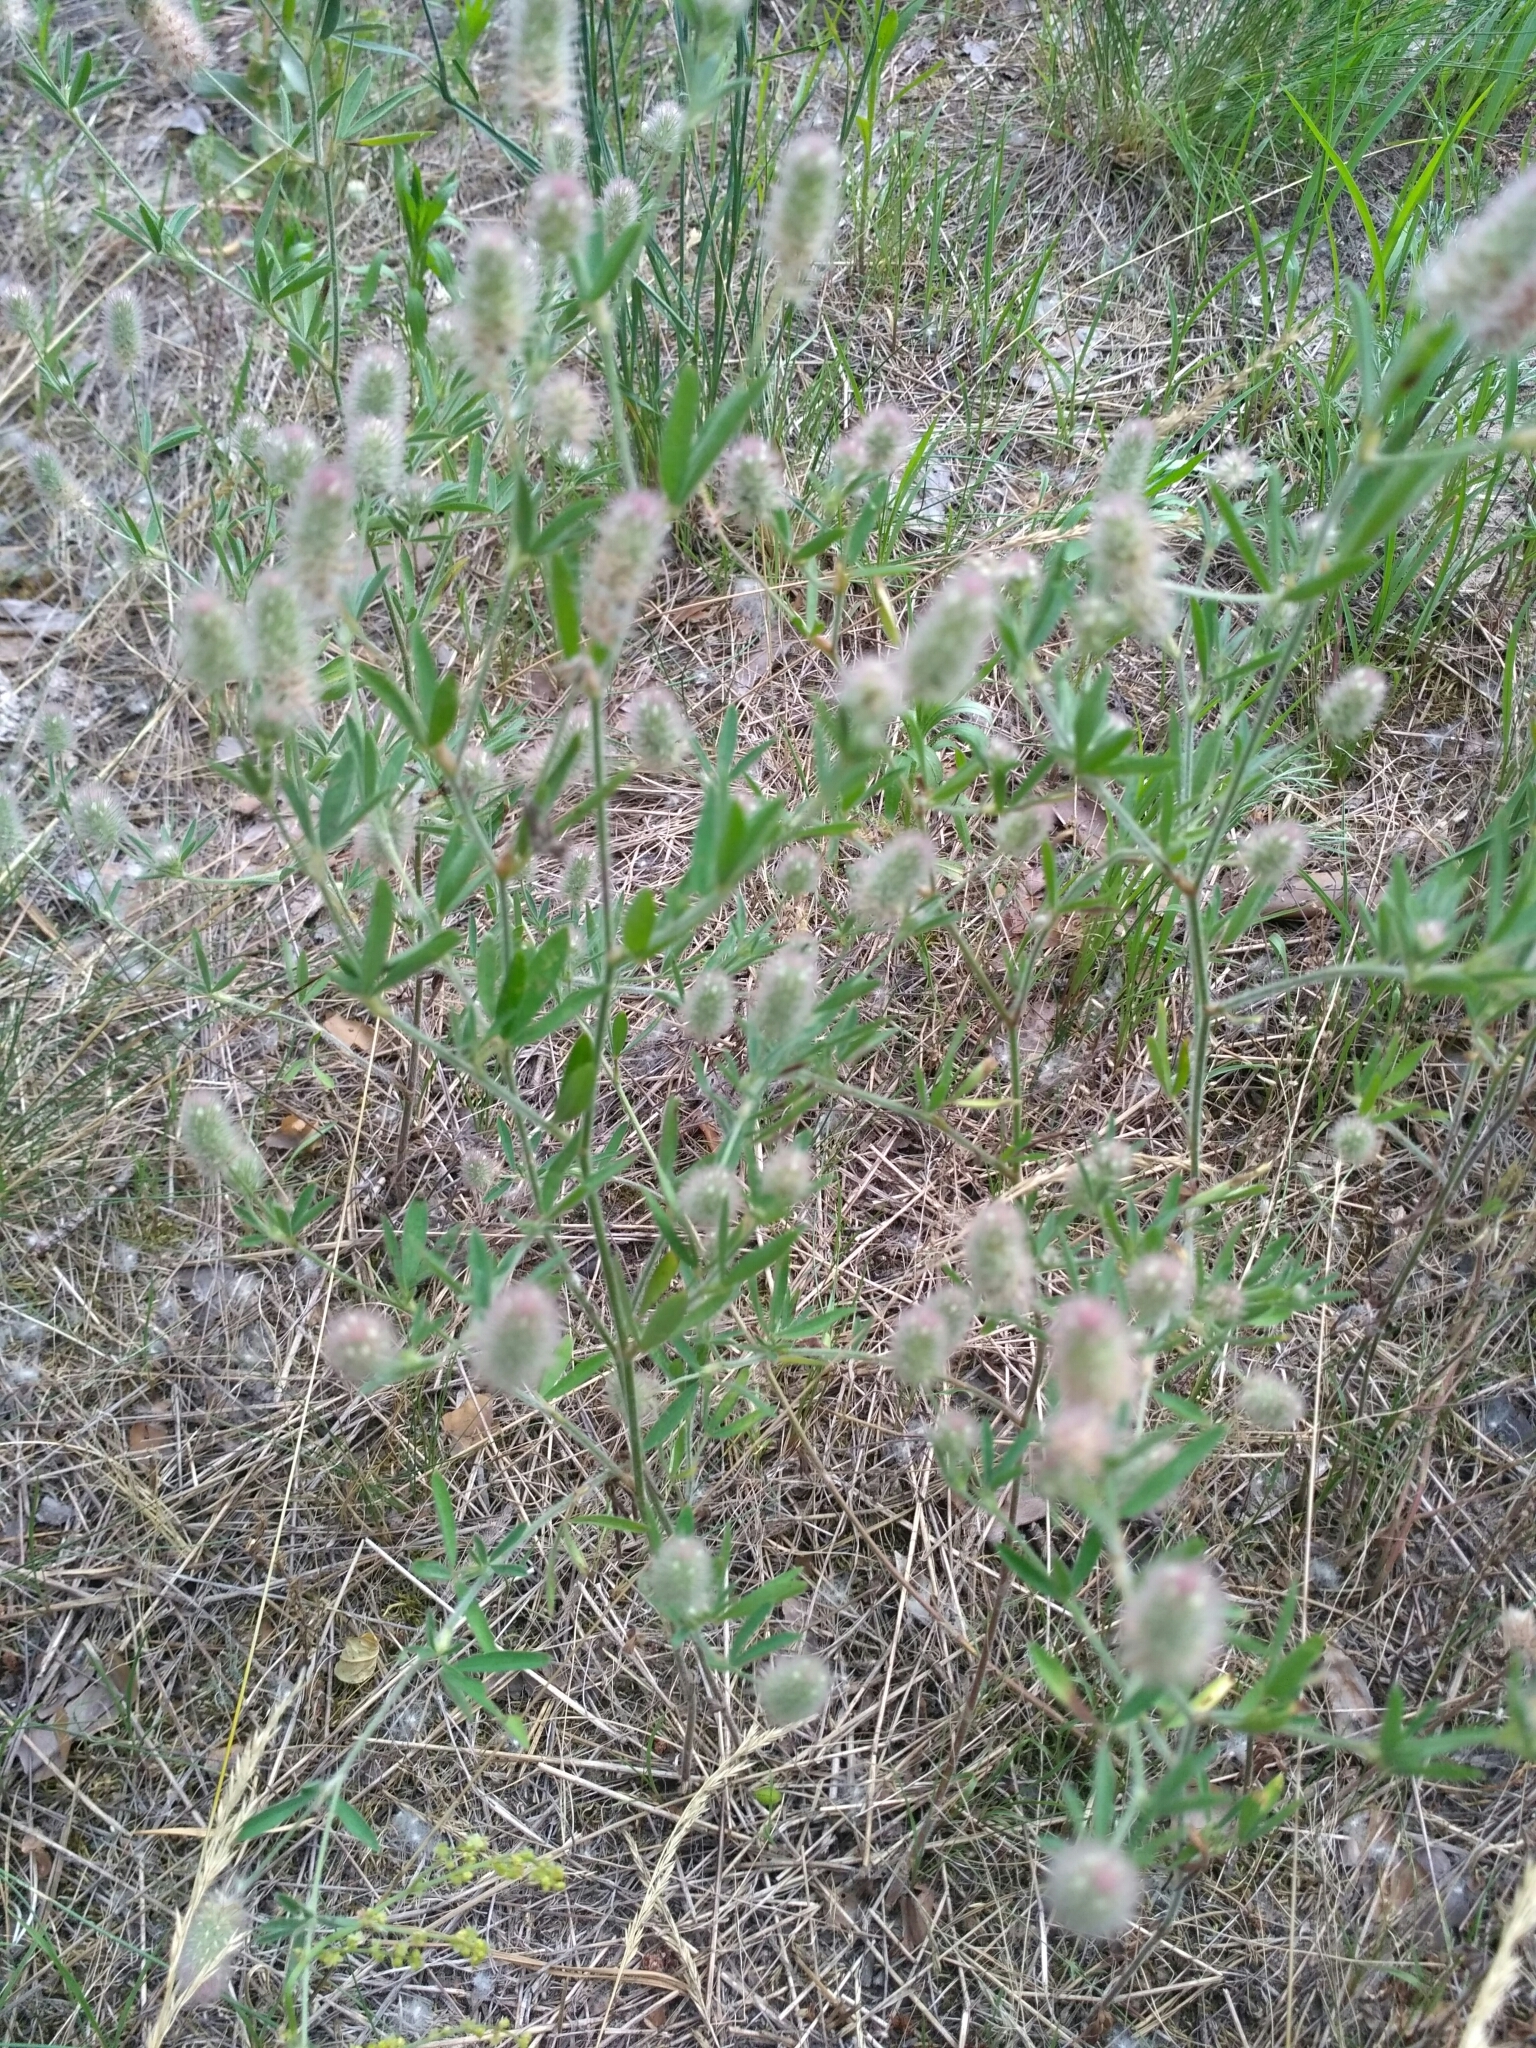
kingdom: Plantae
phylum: Tracheophyta
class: Magnoliopsida
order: Fabales
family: Fabaceae
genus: Trifolium
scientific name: Trifolium arvense
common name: Hare's-foot clover
